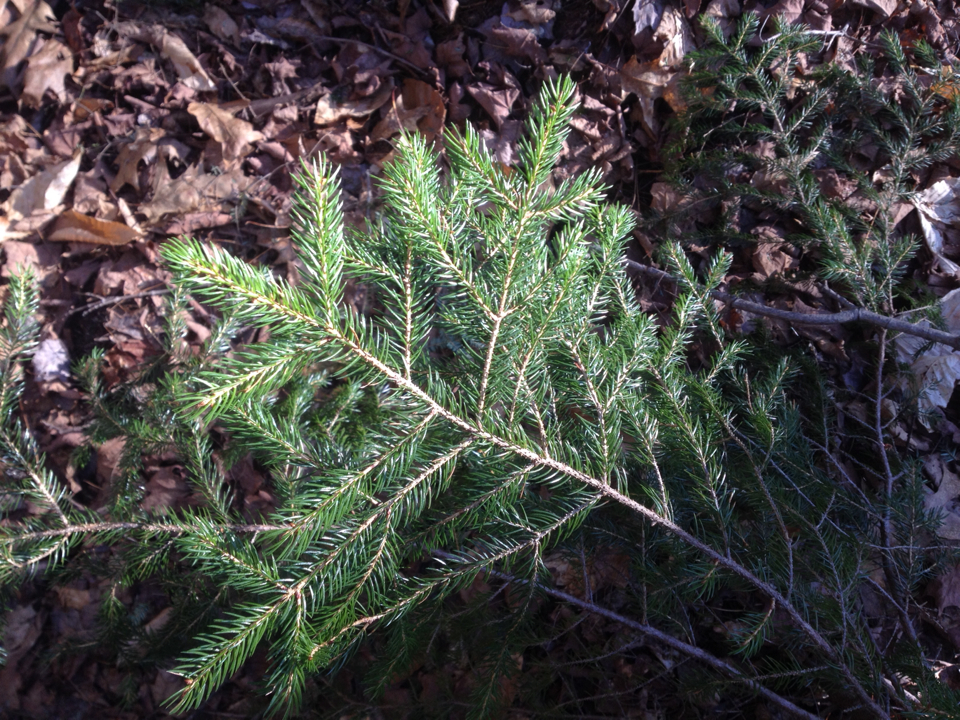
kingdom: Plantae
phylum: Tracheophyta
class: Pinopsida
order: Pinales
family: Pinaceae
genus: Picea
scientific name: Picea rubens
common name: Red spruce
